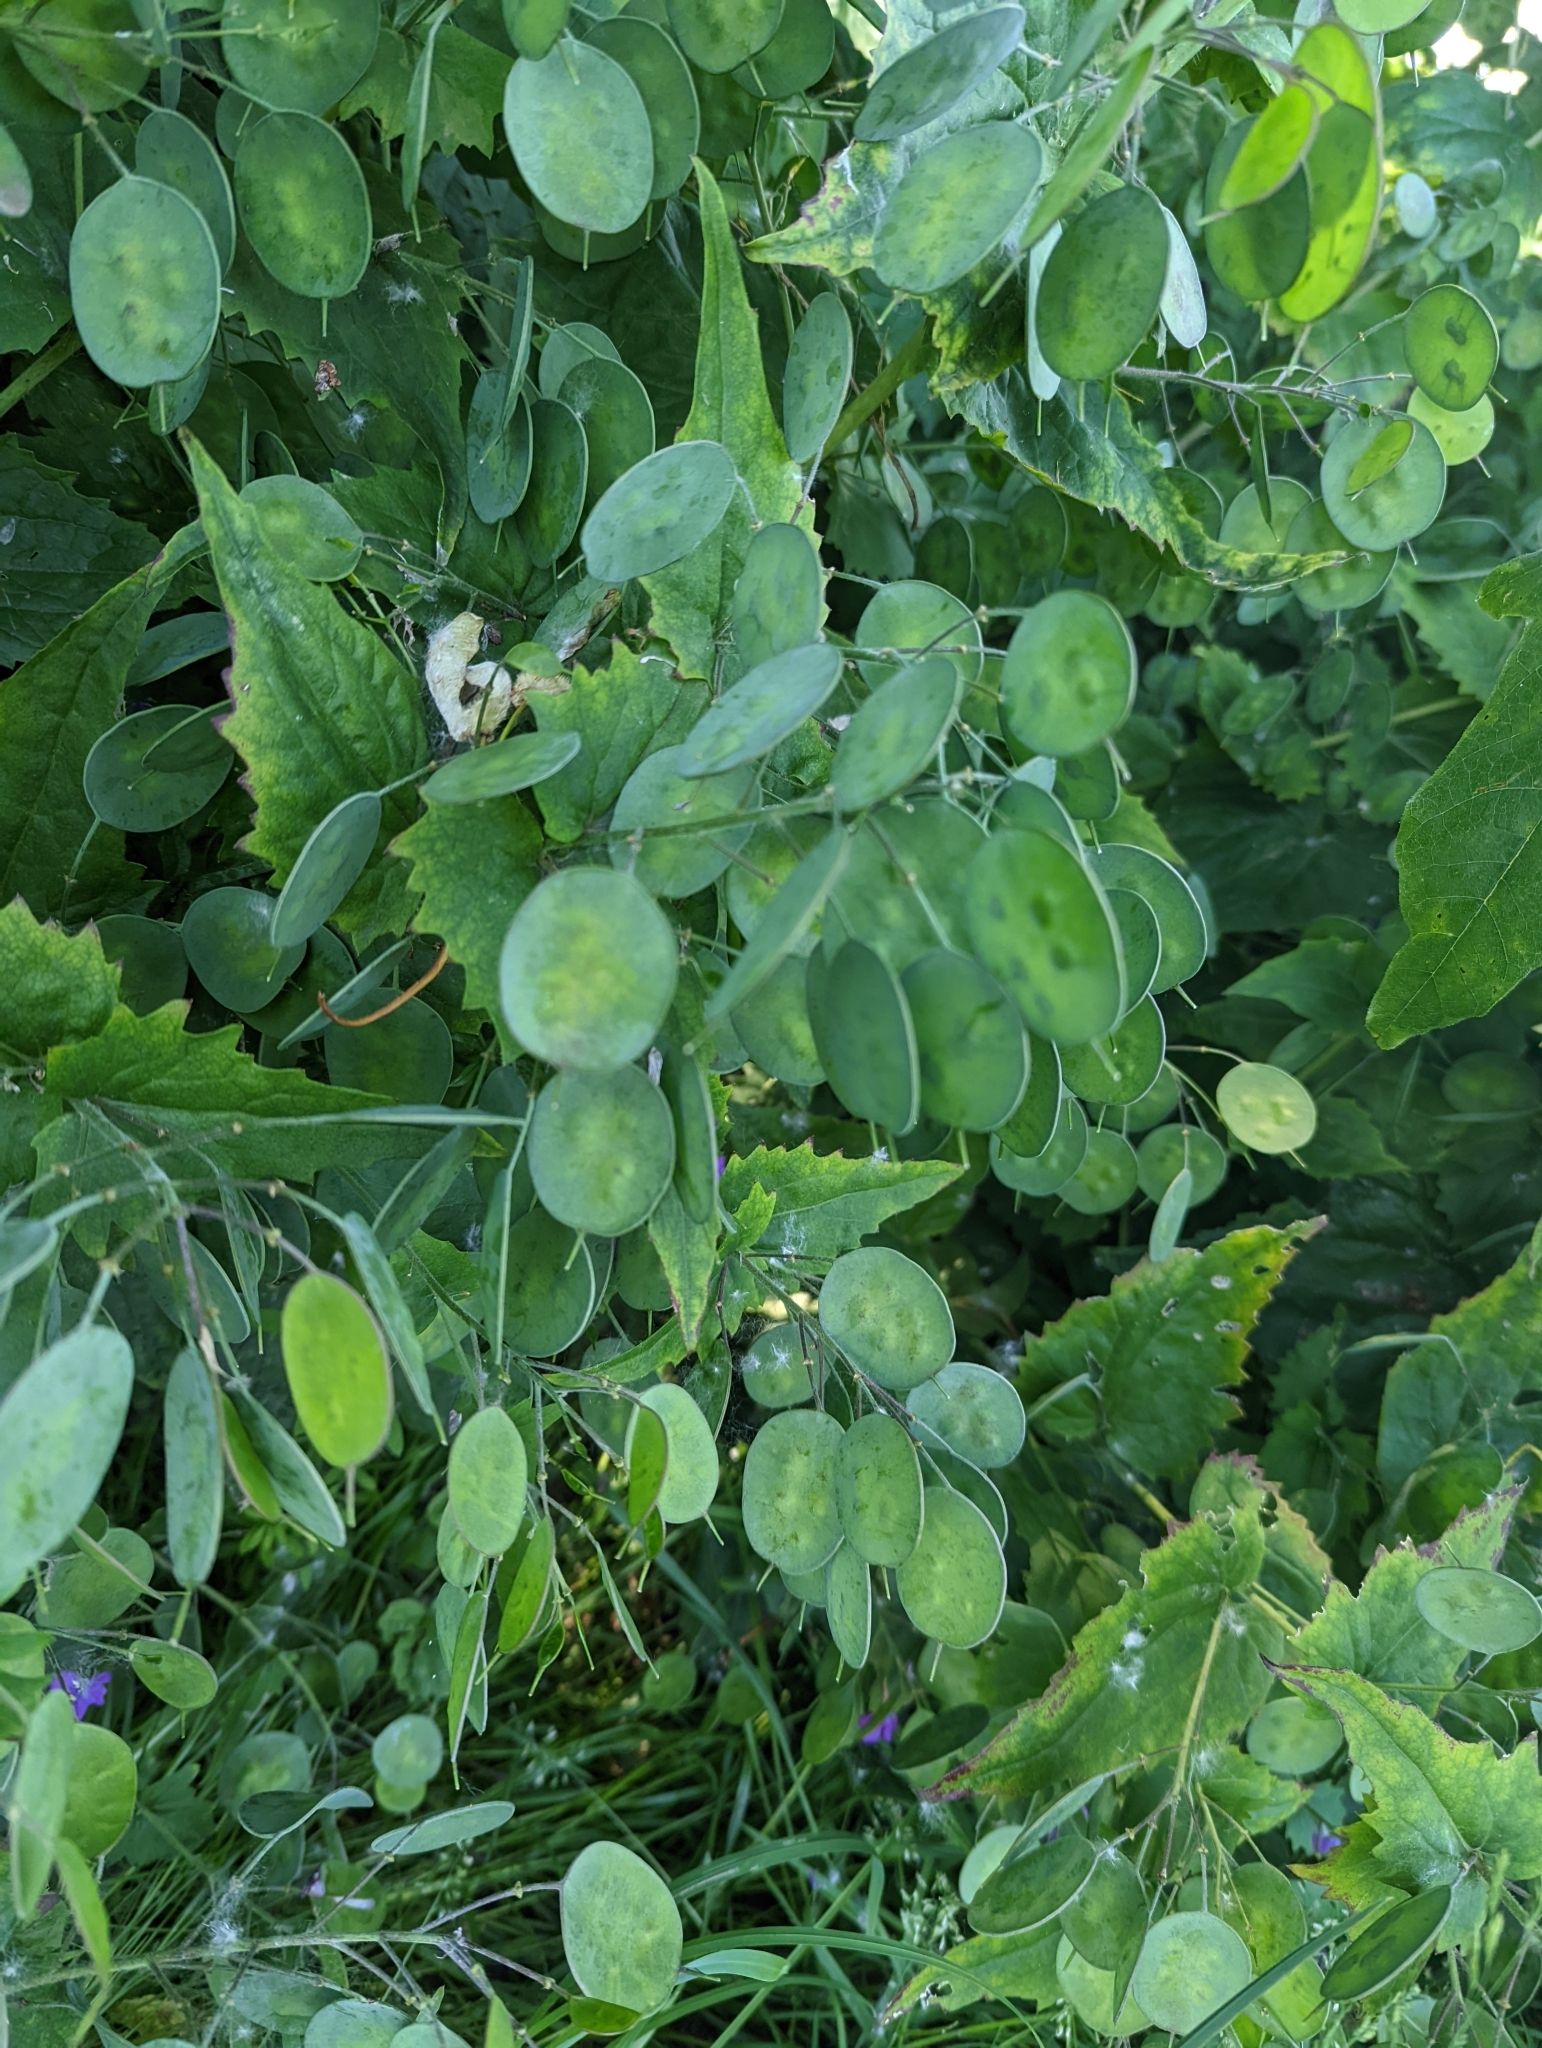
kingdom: Plantae
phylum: Tracheophyta
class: Magnoliopsida
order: Brassicales
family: Brassicaceae
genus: Lunaria
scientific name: Lunaria annua
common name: Honesty
